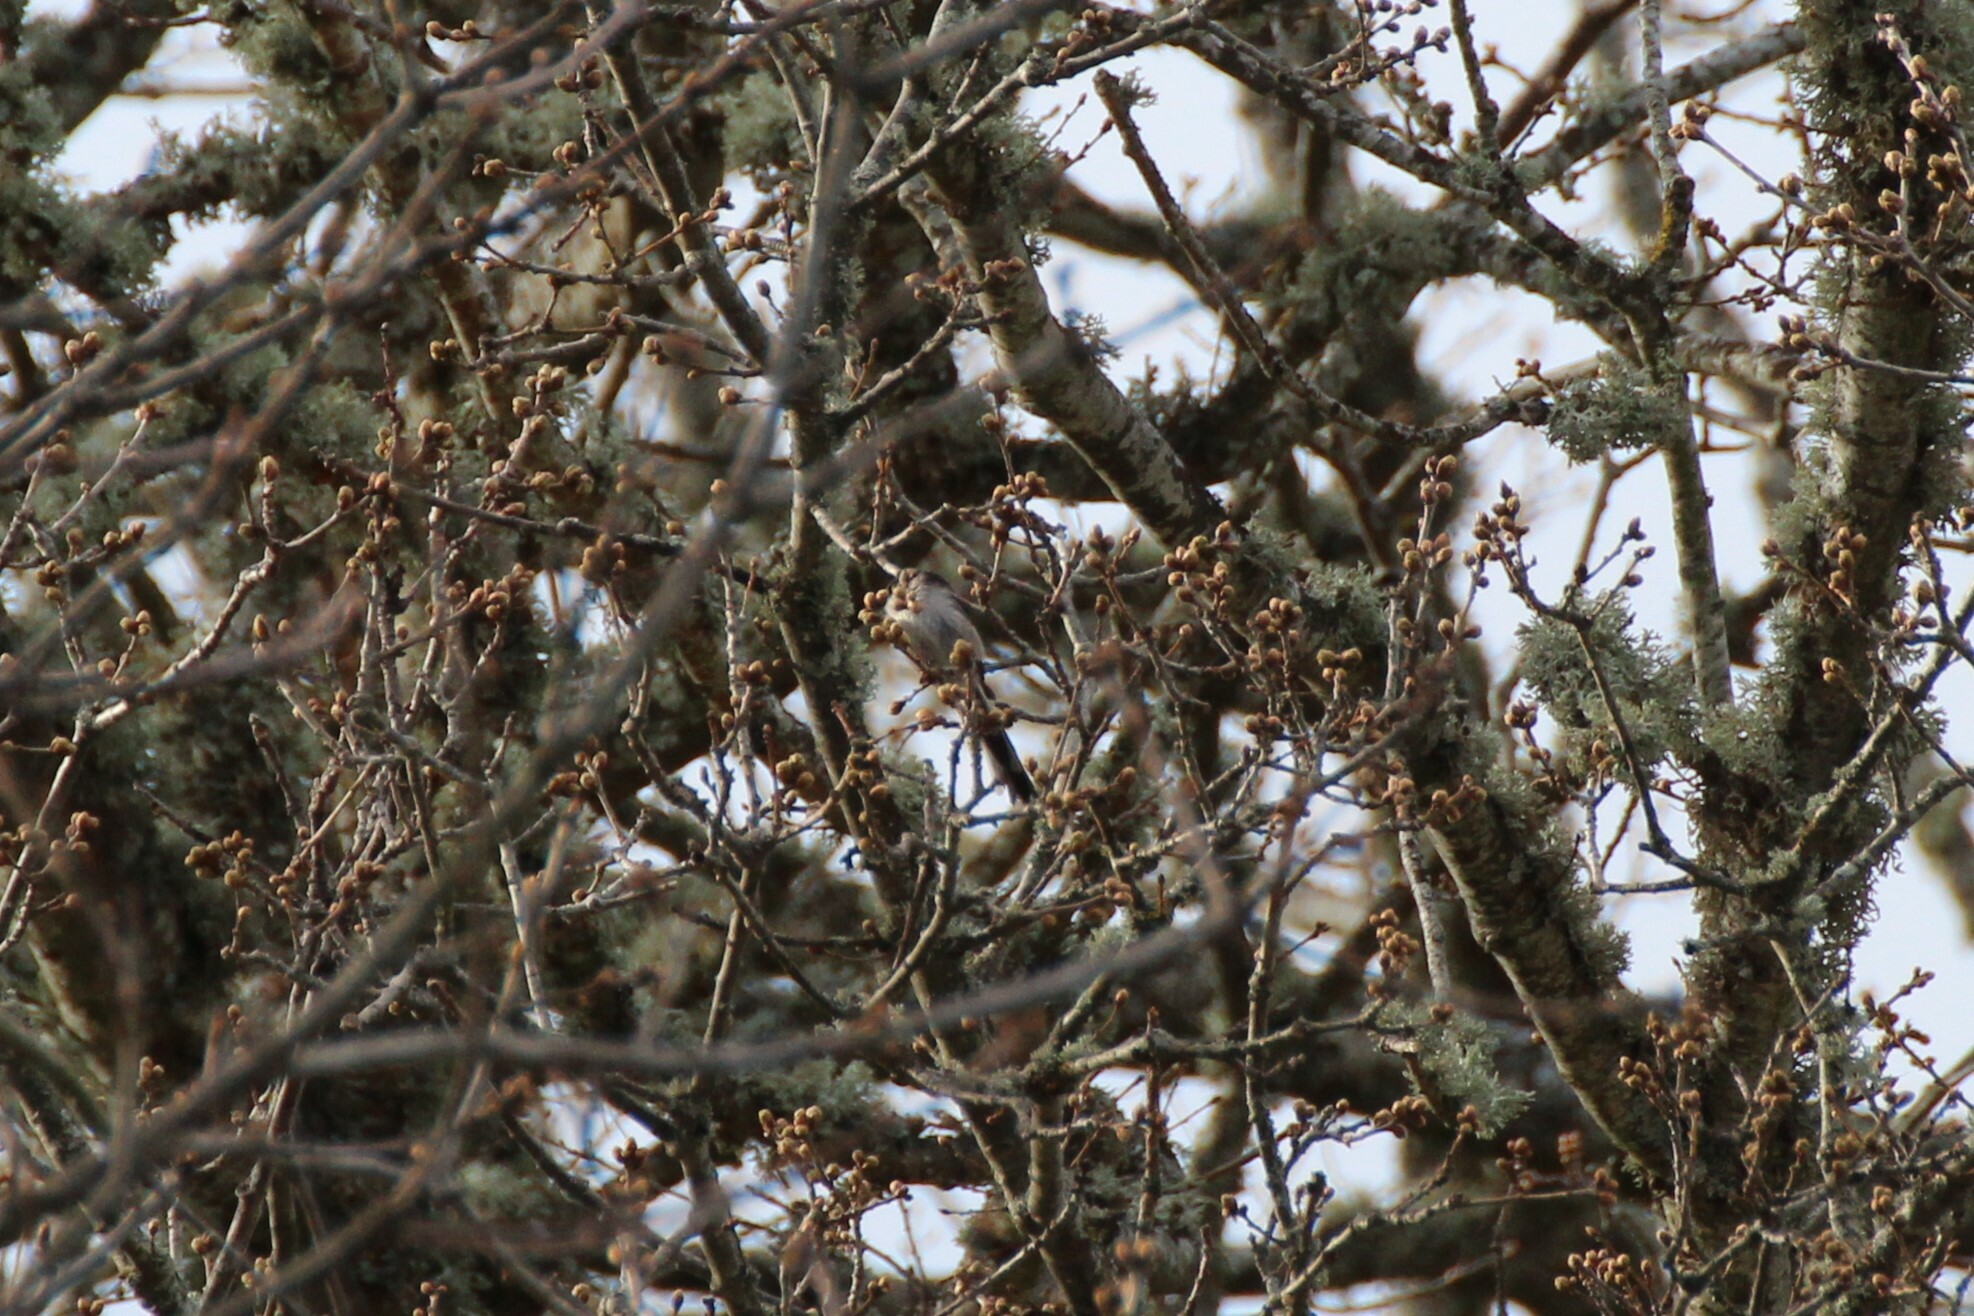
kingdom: Animalia
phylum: Chordata
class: Aves
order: Passeriformes
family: Aegithalidae
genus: Aegithalos
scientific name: Aegithalos caudatus
